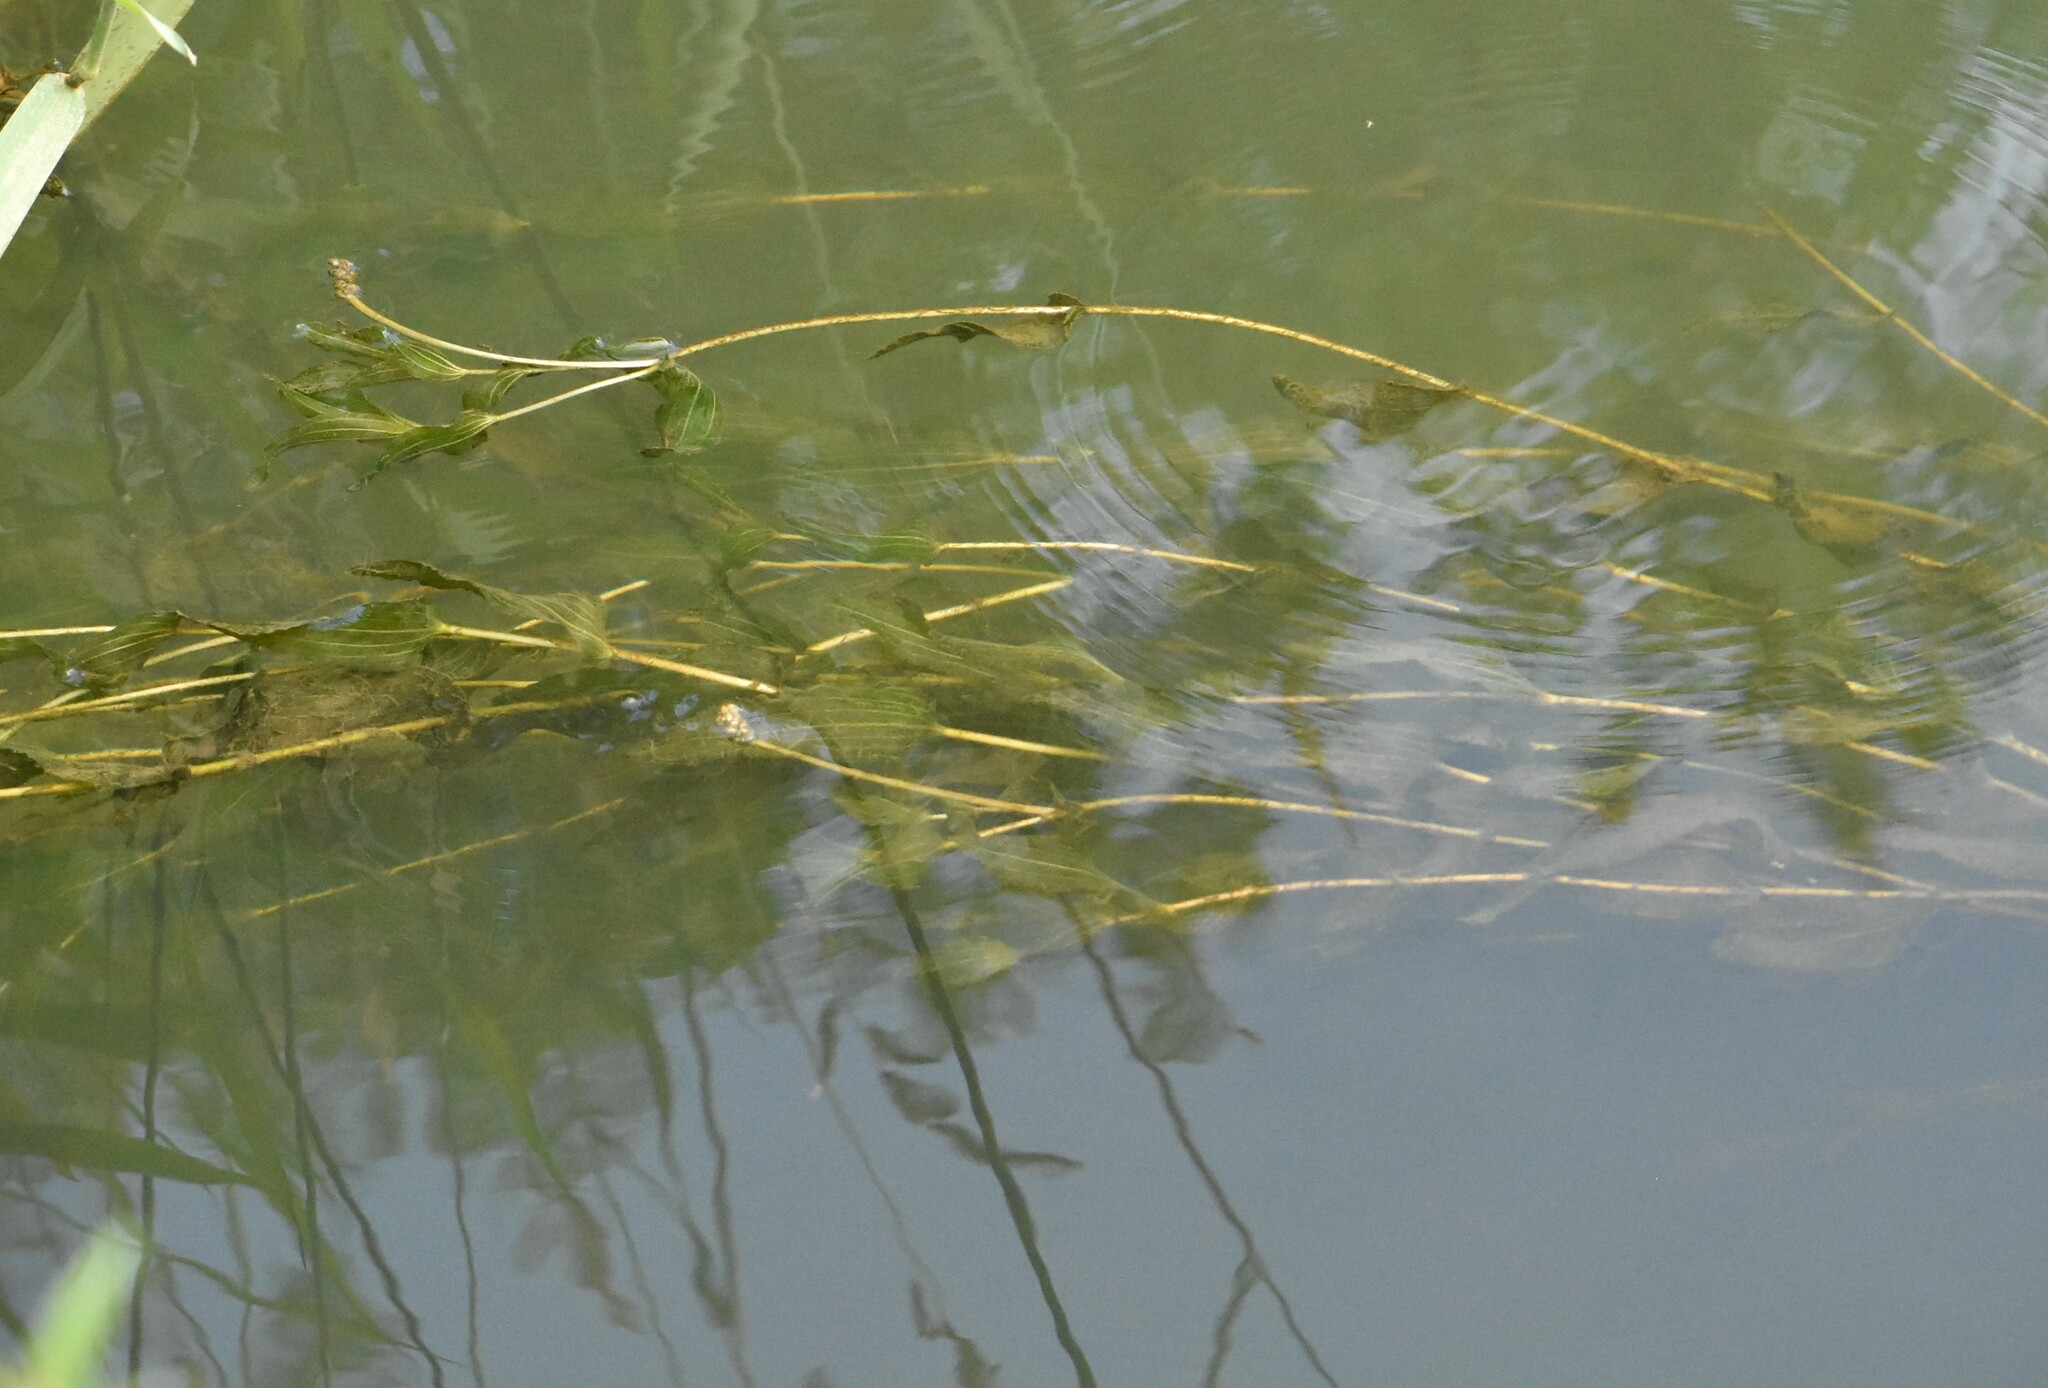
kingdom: Plantae
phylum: Tracheophyta
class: Liliopsida
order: Alismatales
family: Potamogetonaceae
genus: Potamogeton
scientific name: Potamogeton perfoliatus
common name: Perfoliate pondweed
